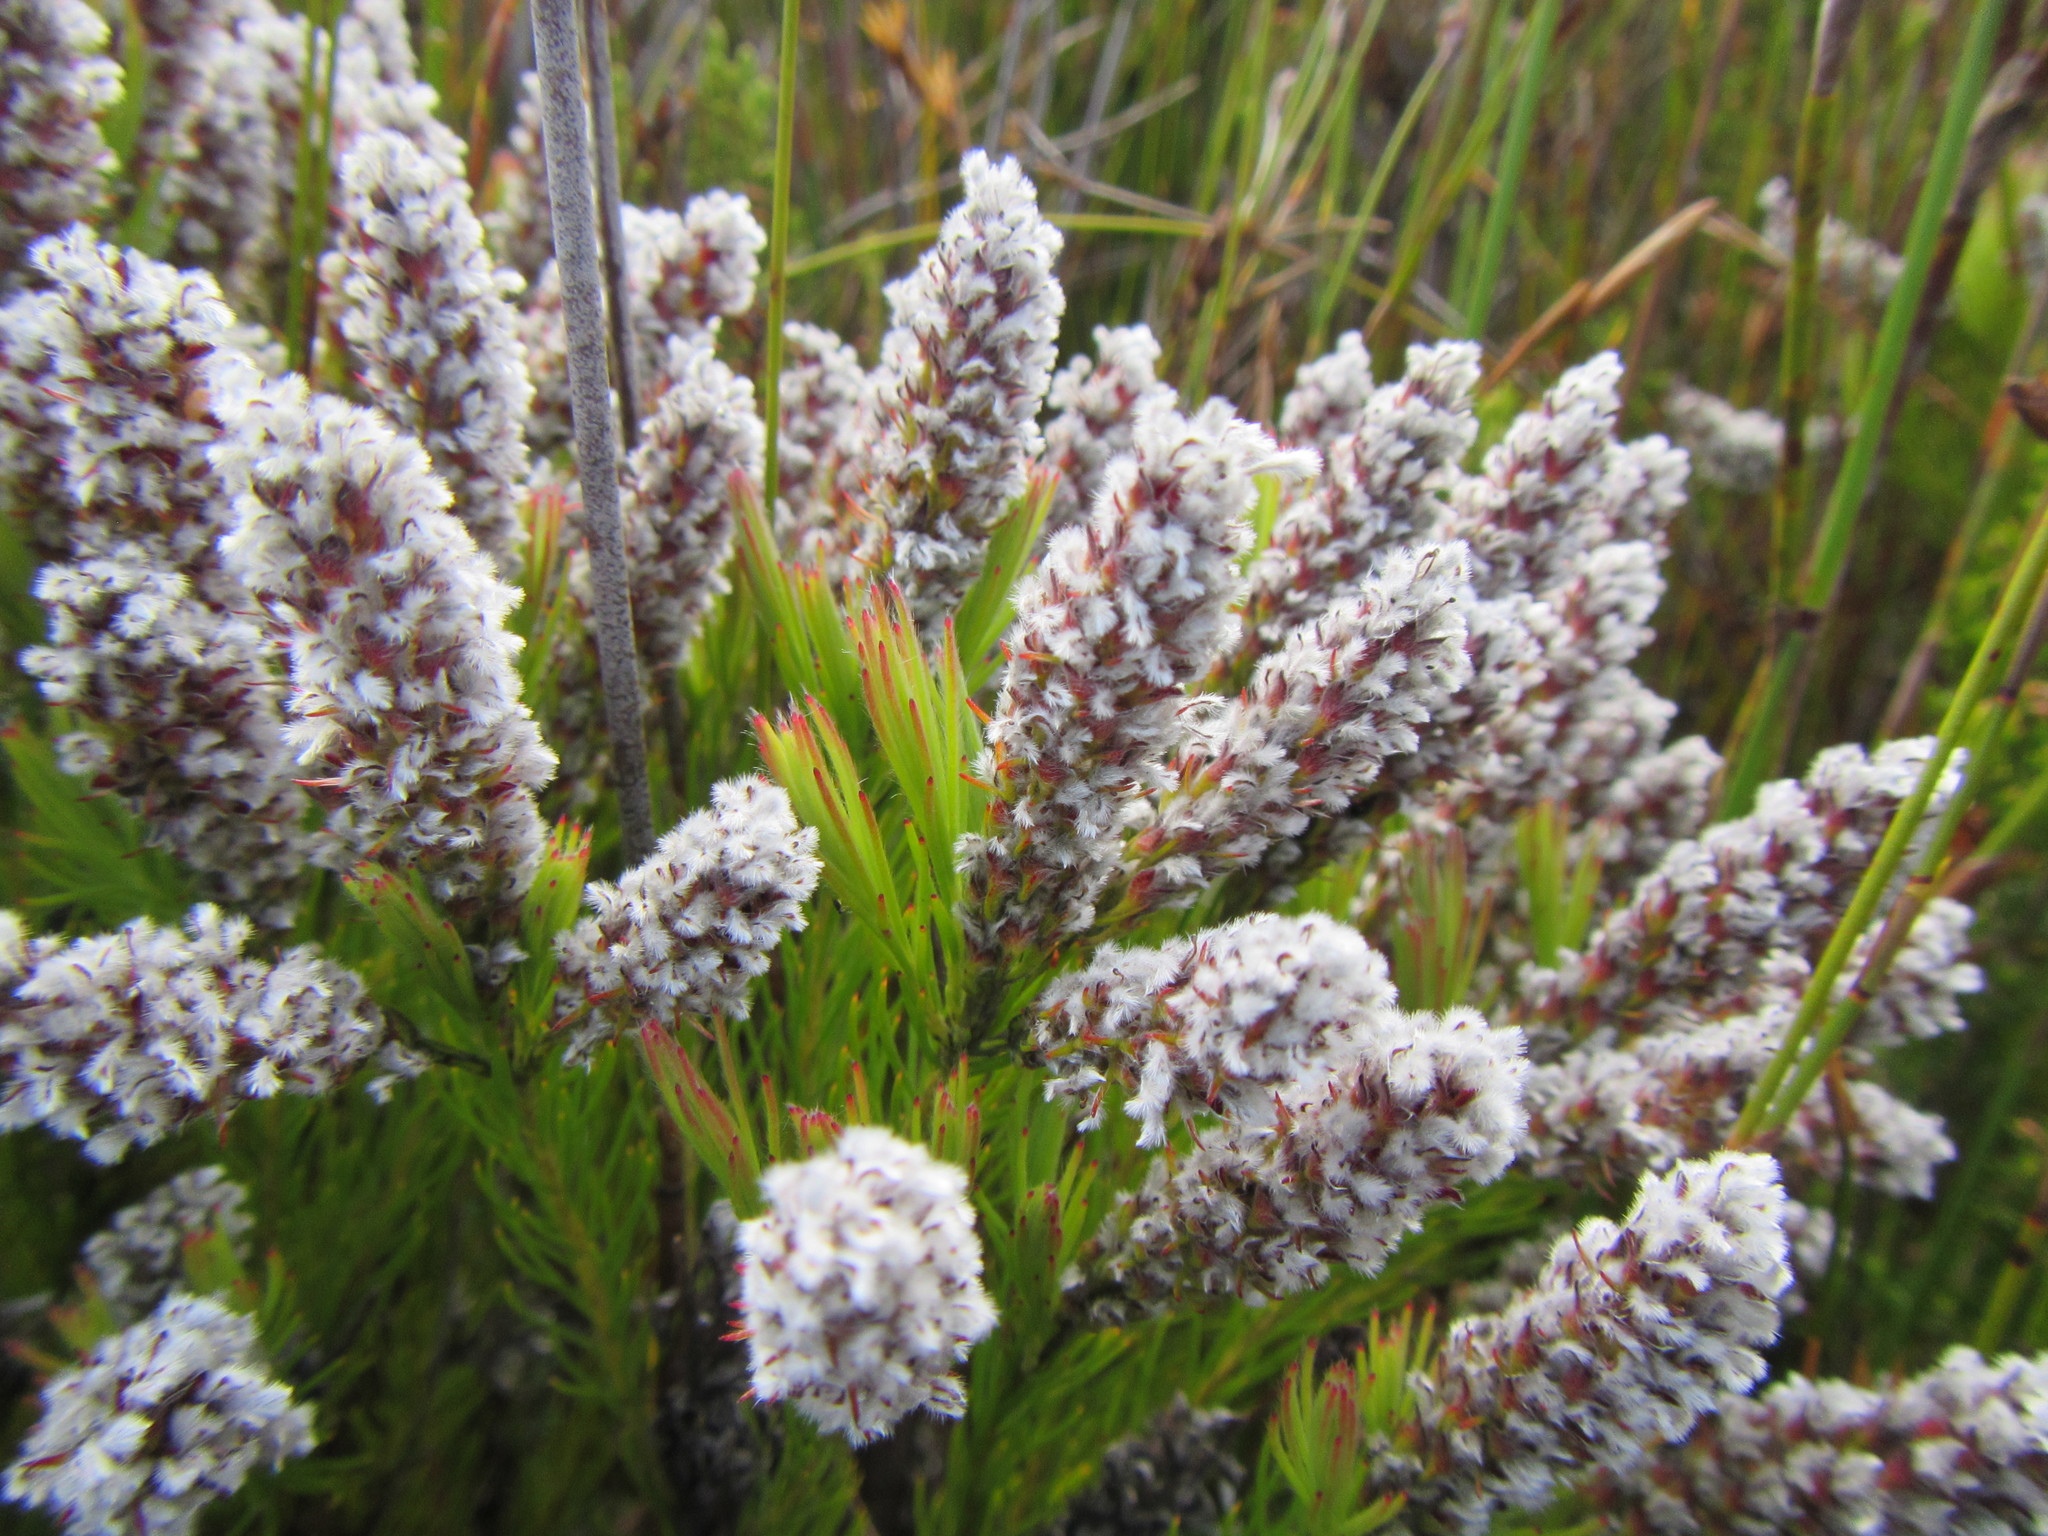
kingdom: Plantae
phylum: Tracheophyta
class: Magnoliopsida
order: Proteales
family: Proteaceae
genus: Spatalla
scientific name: Spatalla mollis
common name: Woolly spoon
